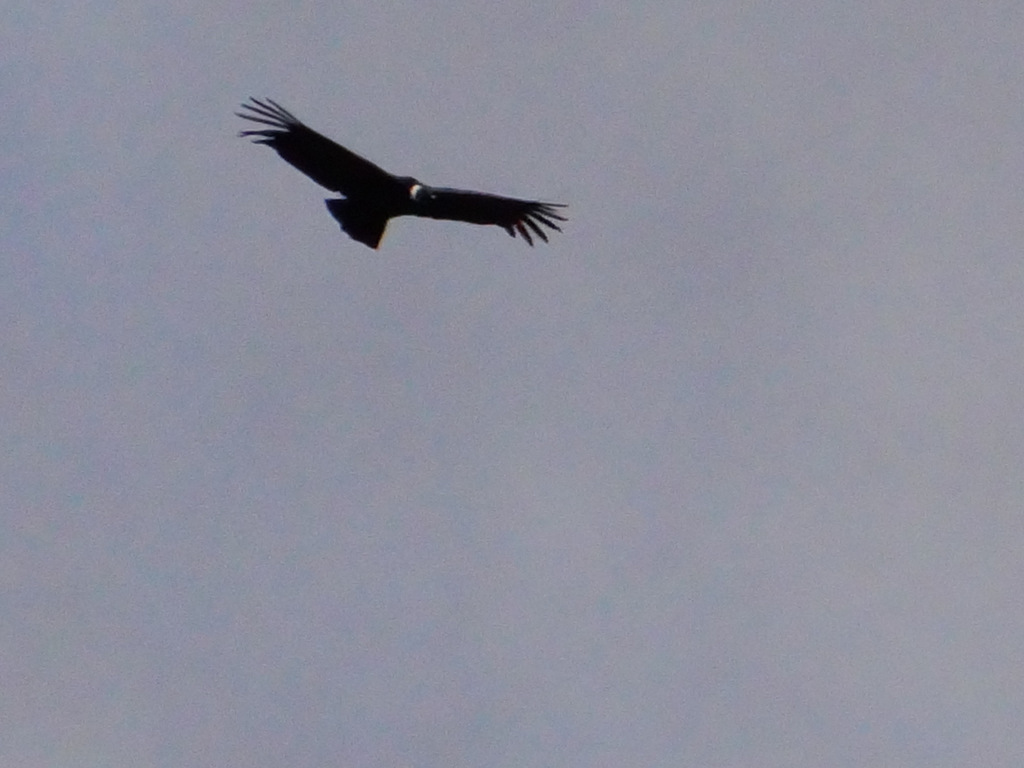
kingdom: Animalia
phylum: Chordata
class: Aves
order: Accipitriformes
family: Cathartidae
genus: Vultur
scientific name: Vultur gryphus
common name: Andean condor
